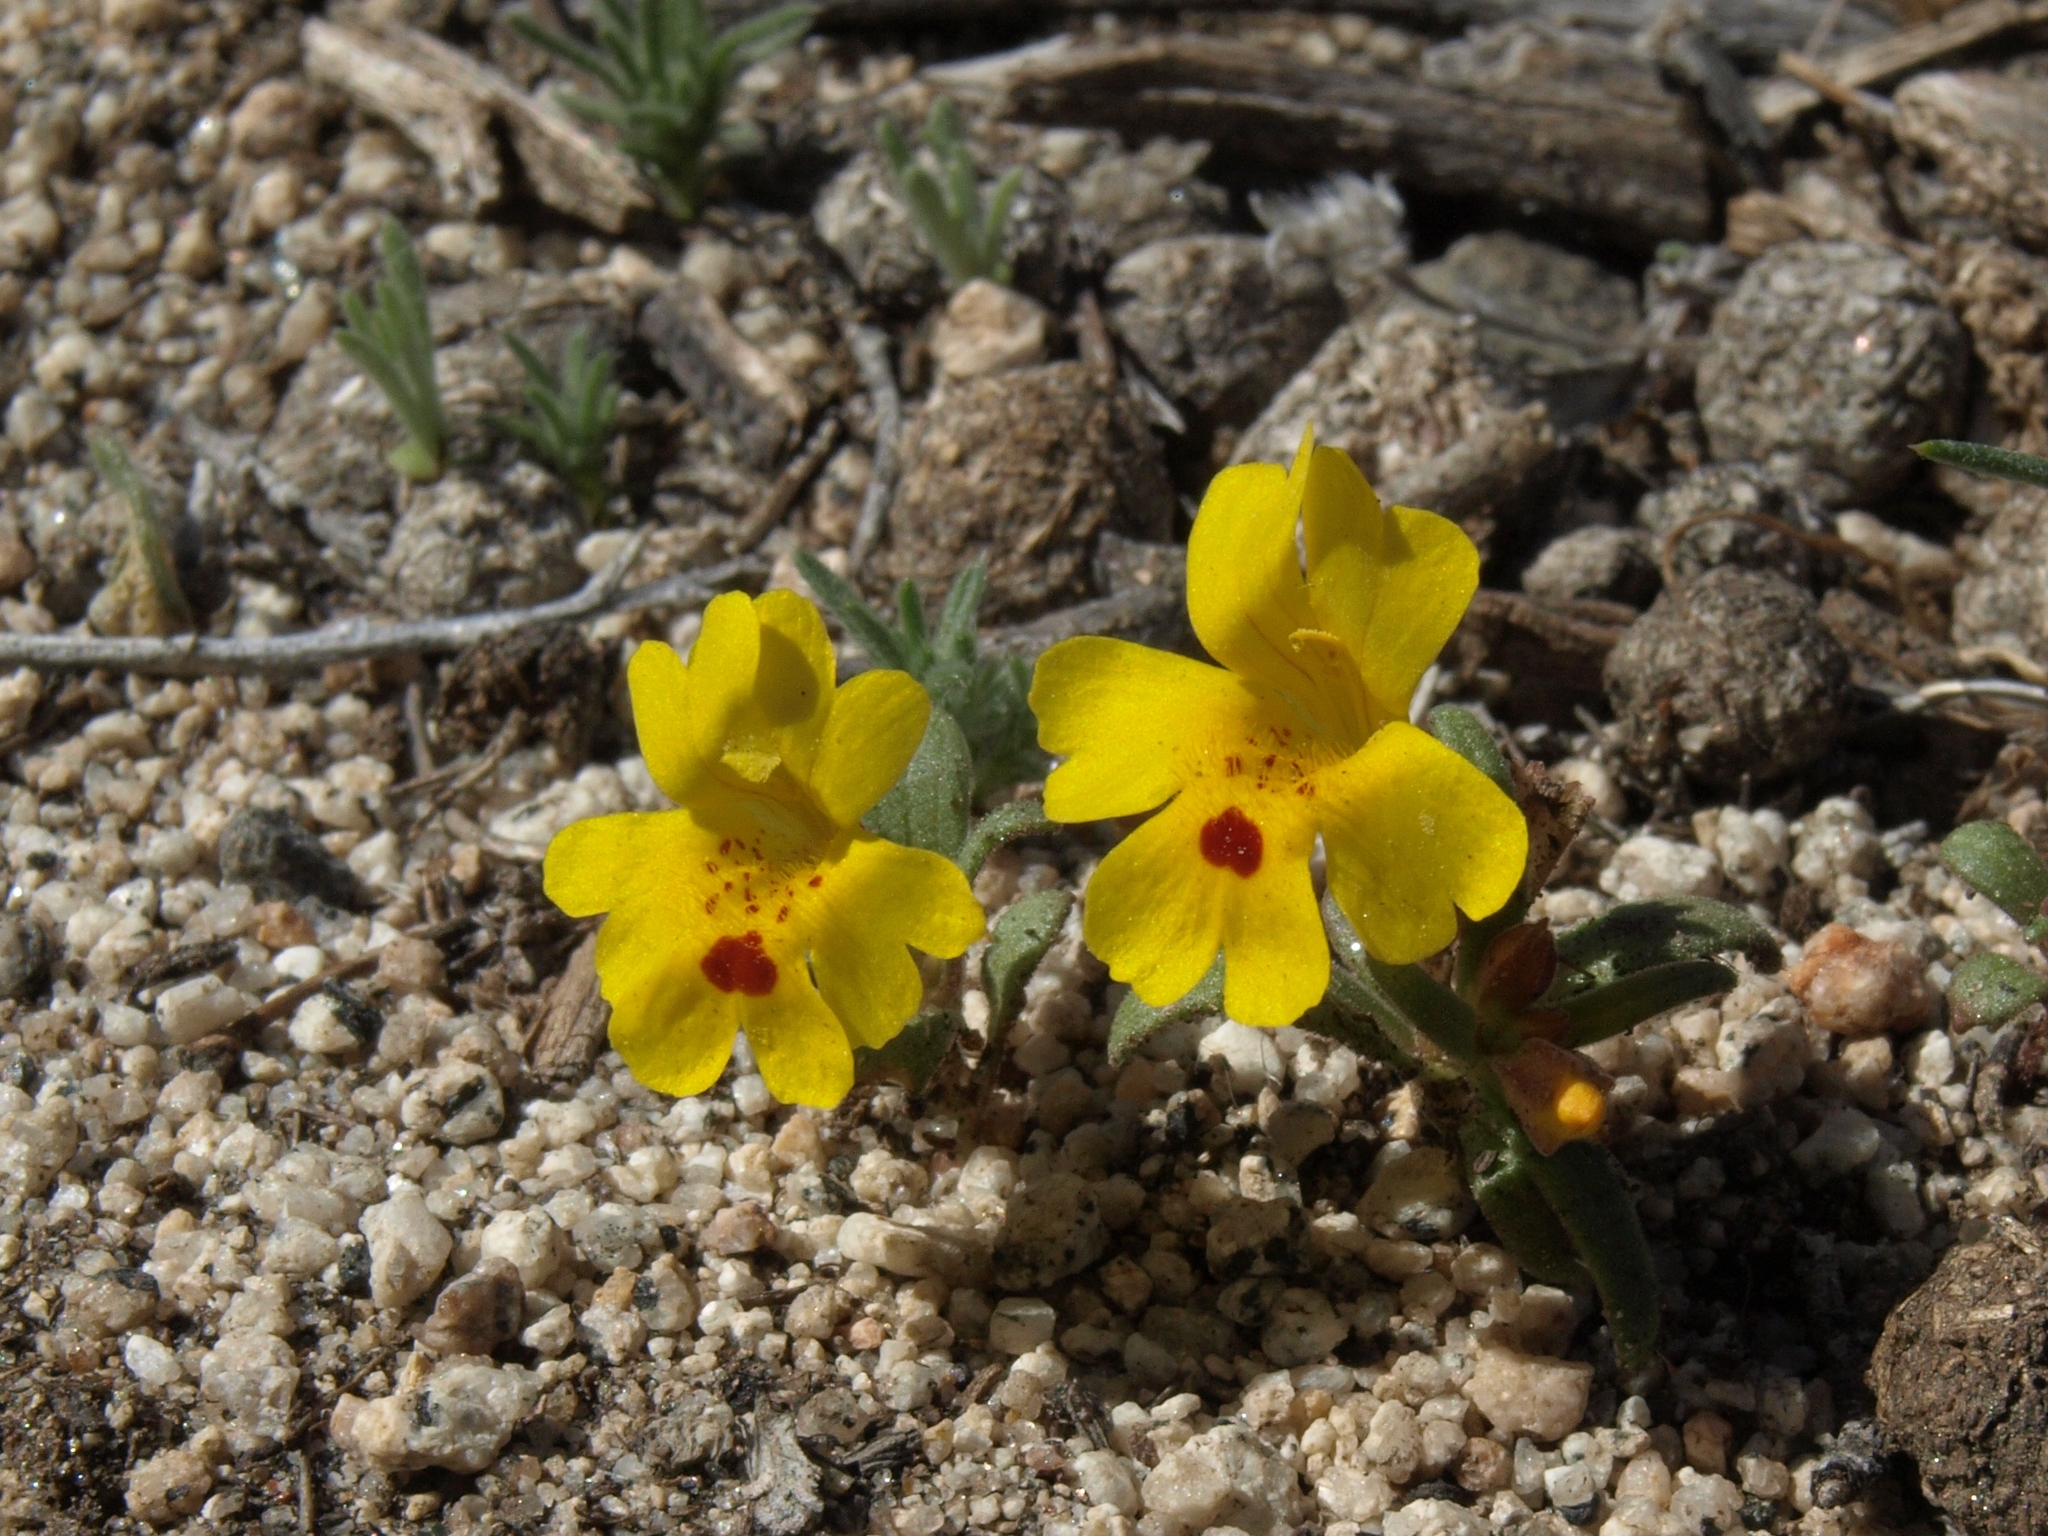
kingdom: Plantae
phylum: Tracheophyta
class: Magnoliopsida
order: Lamiales
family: Phrymaceae
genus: Erythranthe
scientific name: Erythranthe carsonensis
